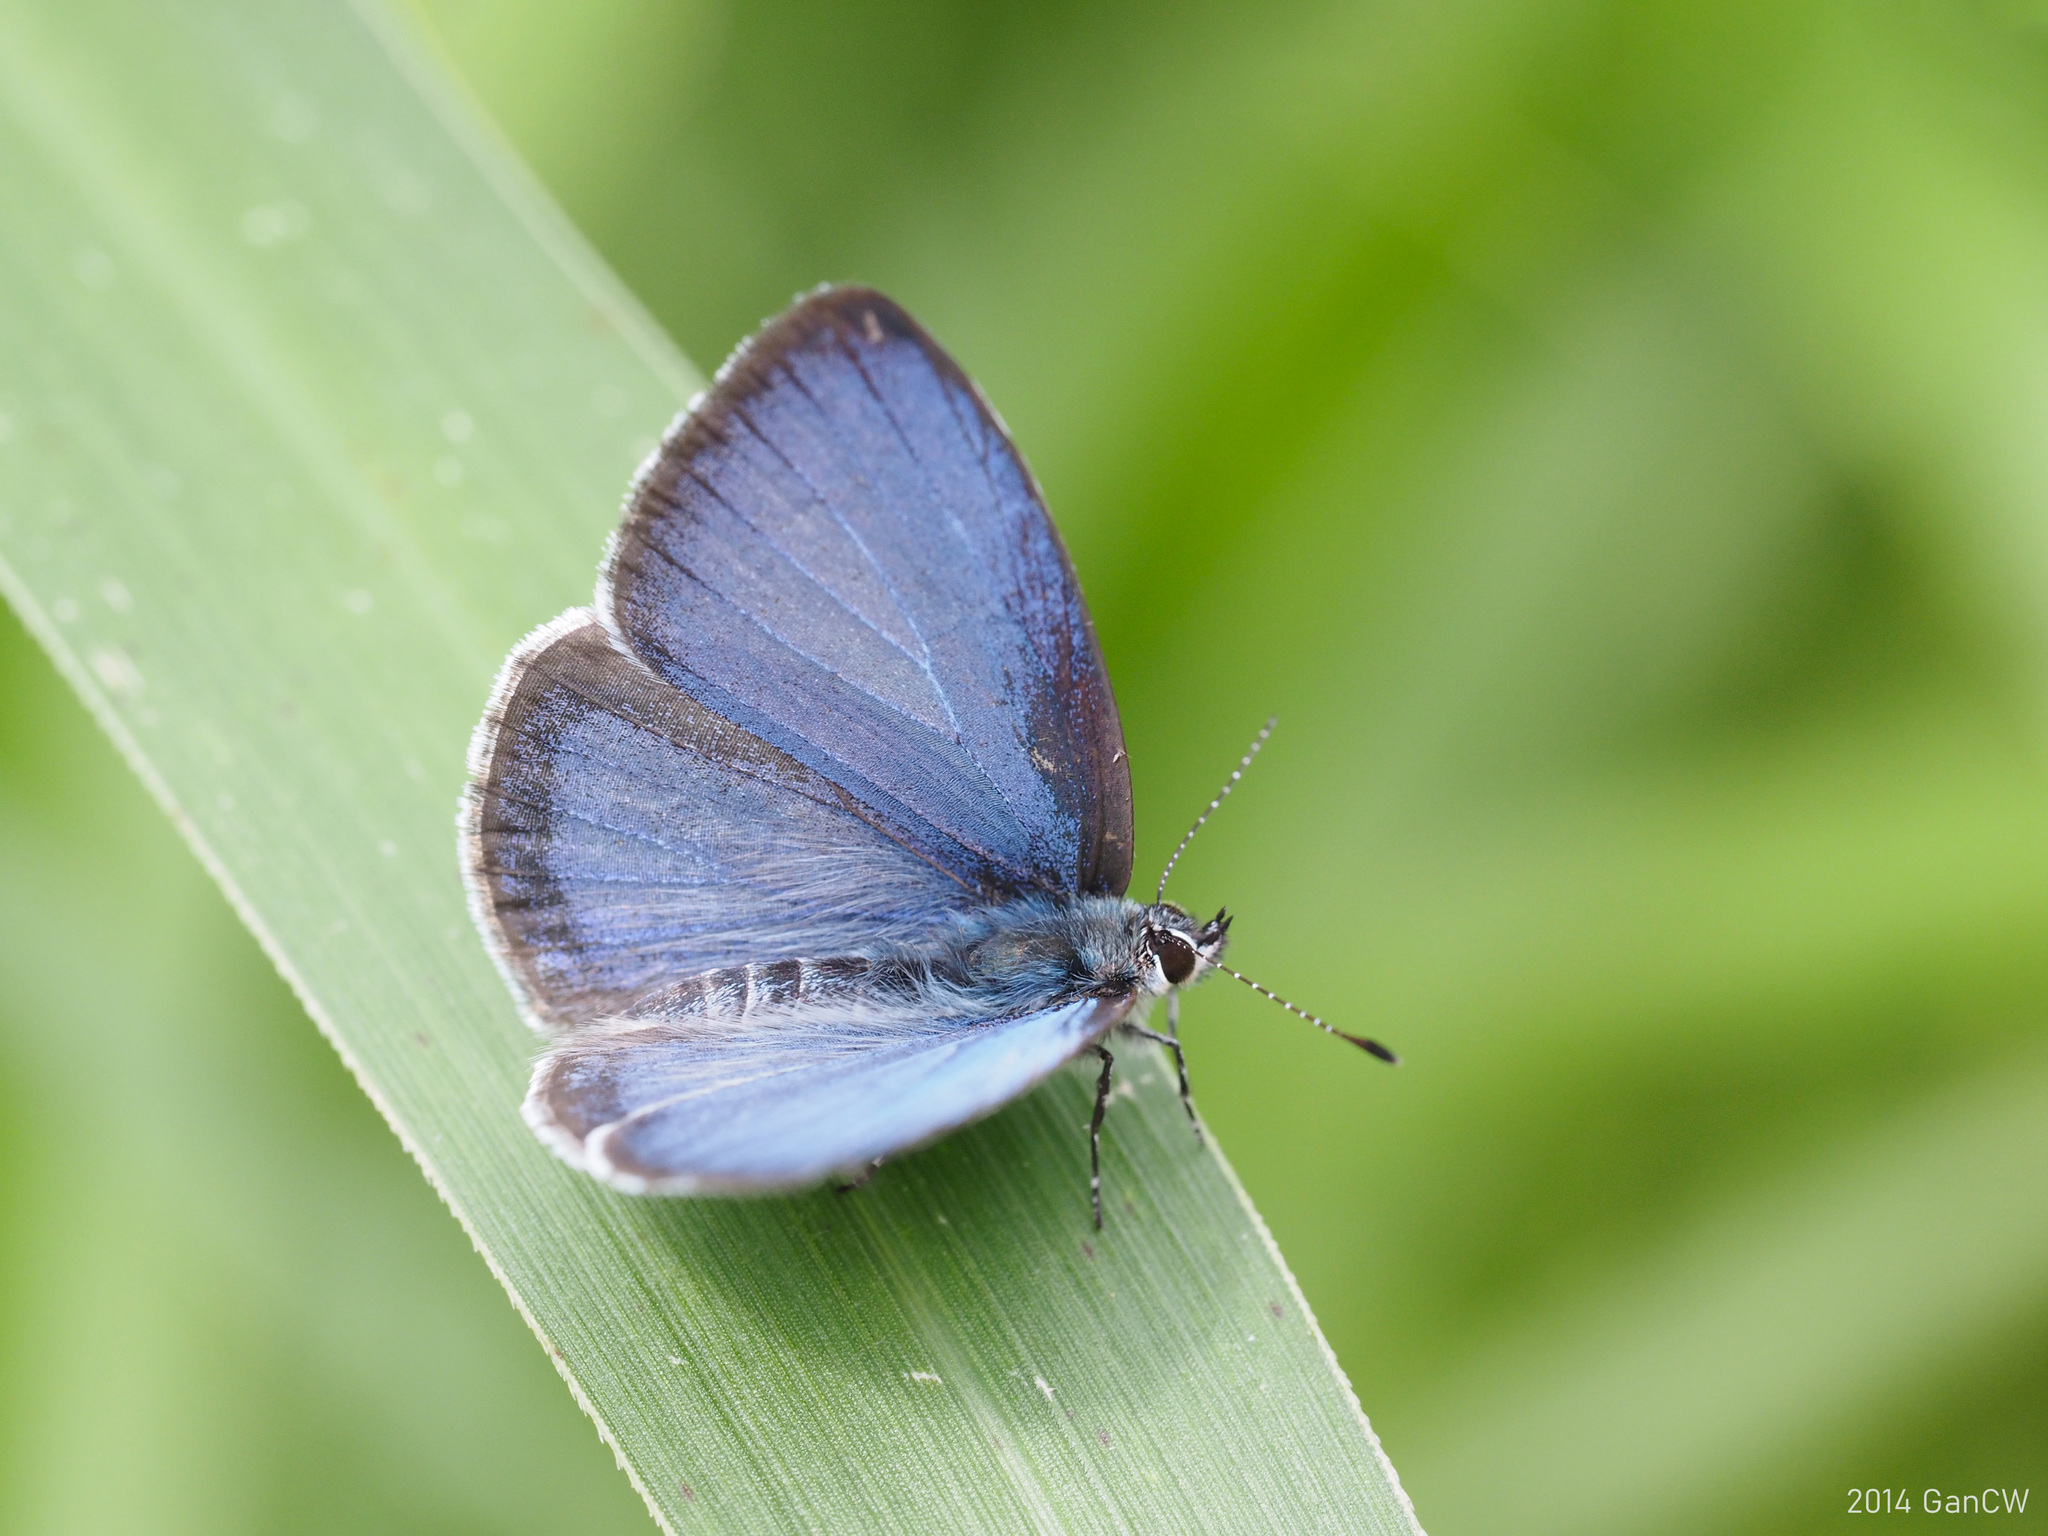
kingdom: Animalia
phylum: Arthropoda
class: Insecta
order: Lepidoptera
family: Lycaenidae
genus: Udara
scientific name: Udara
